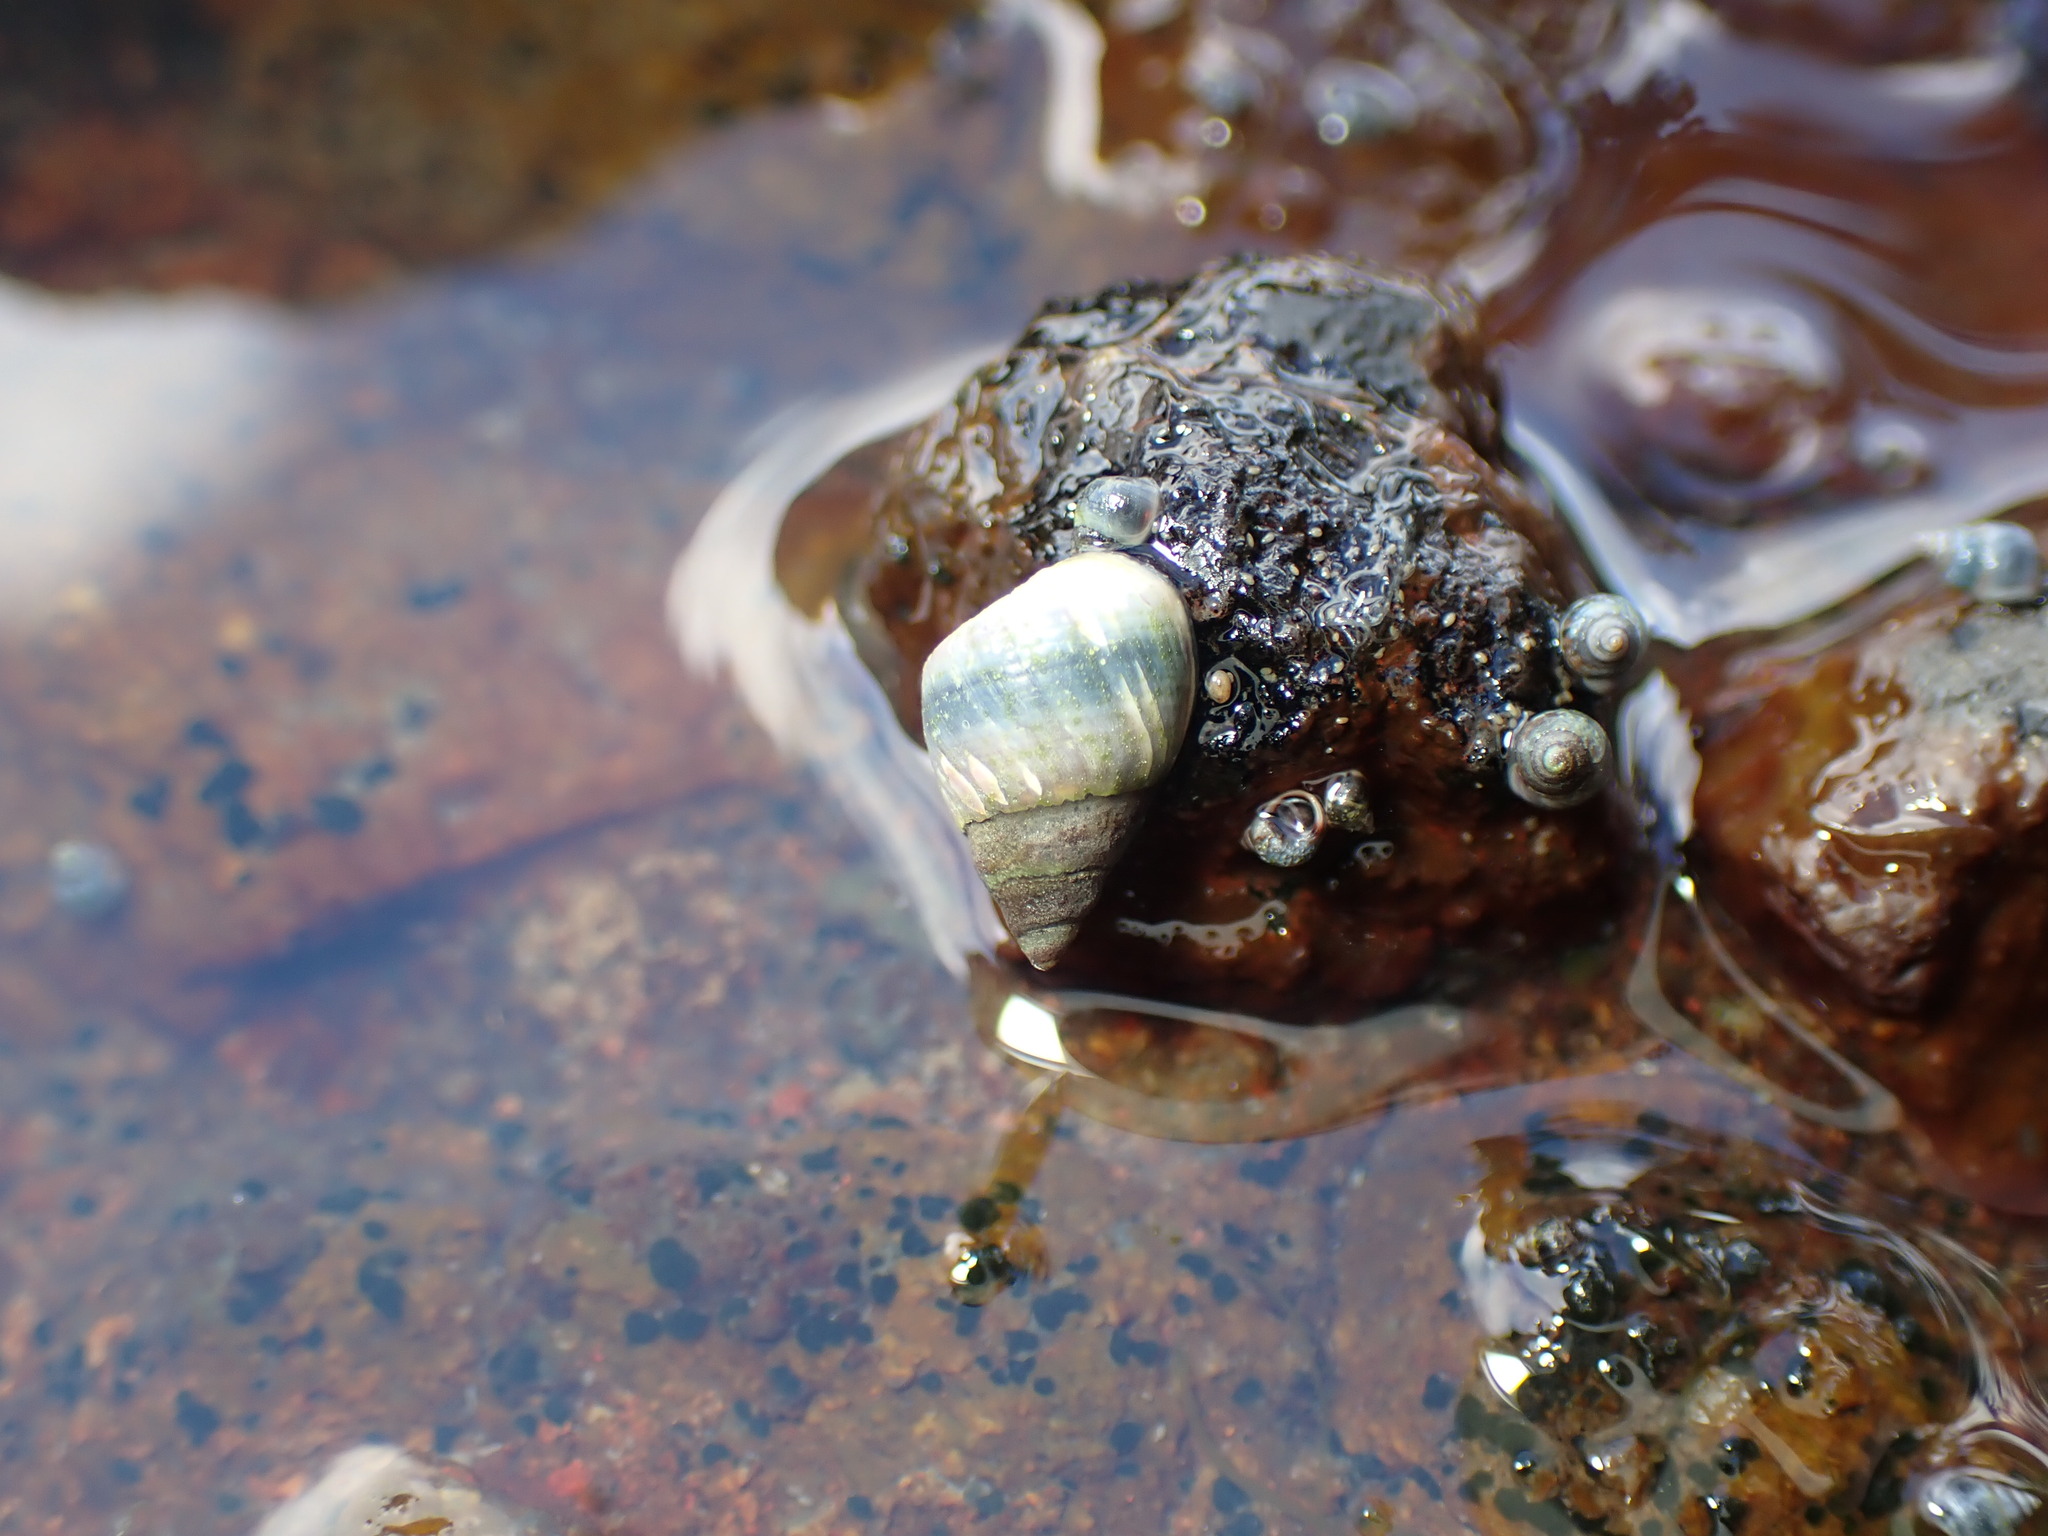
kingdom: Animalia
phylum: Mollusca
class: Gastropoda
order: Littorinimorpha
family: Littorinidae
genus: Austrolittorina
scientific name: Austrolittorina antipodum
